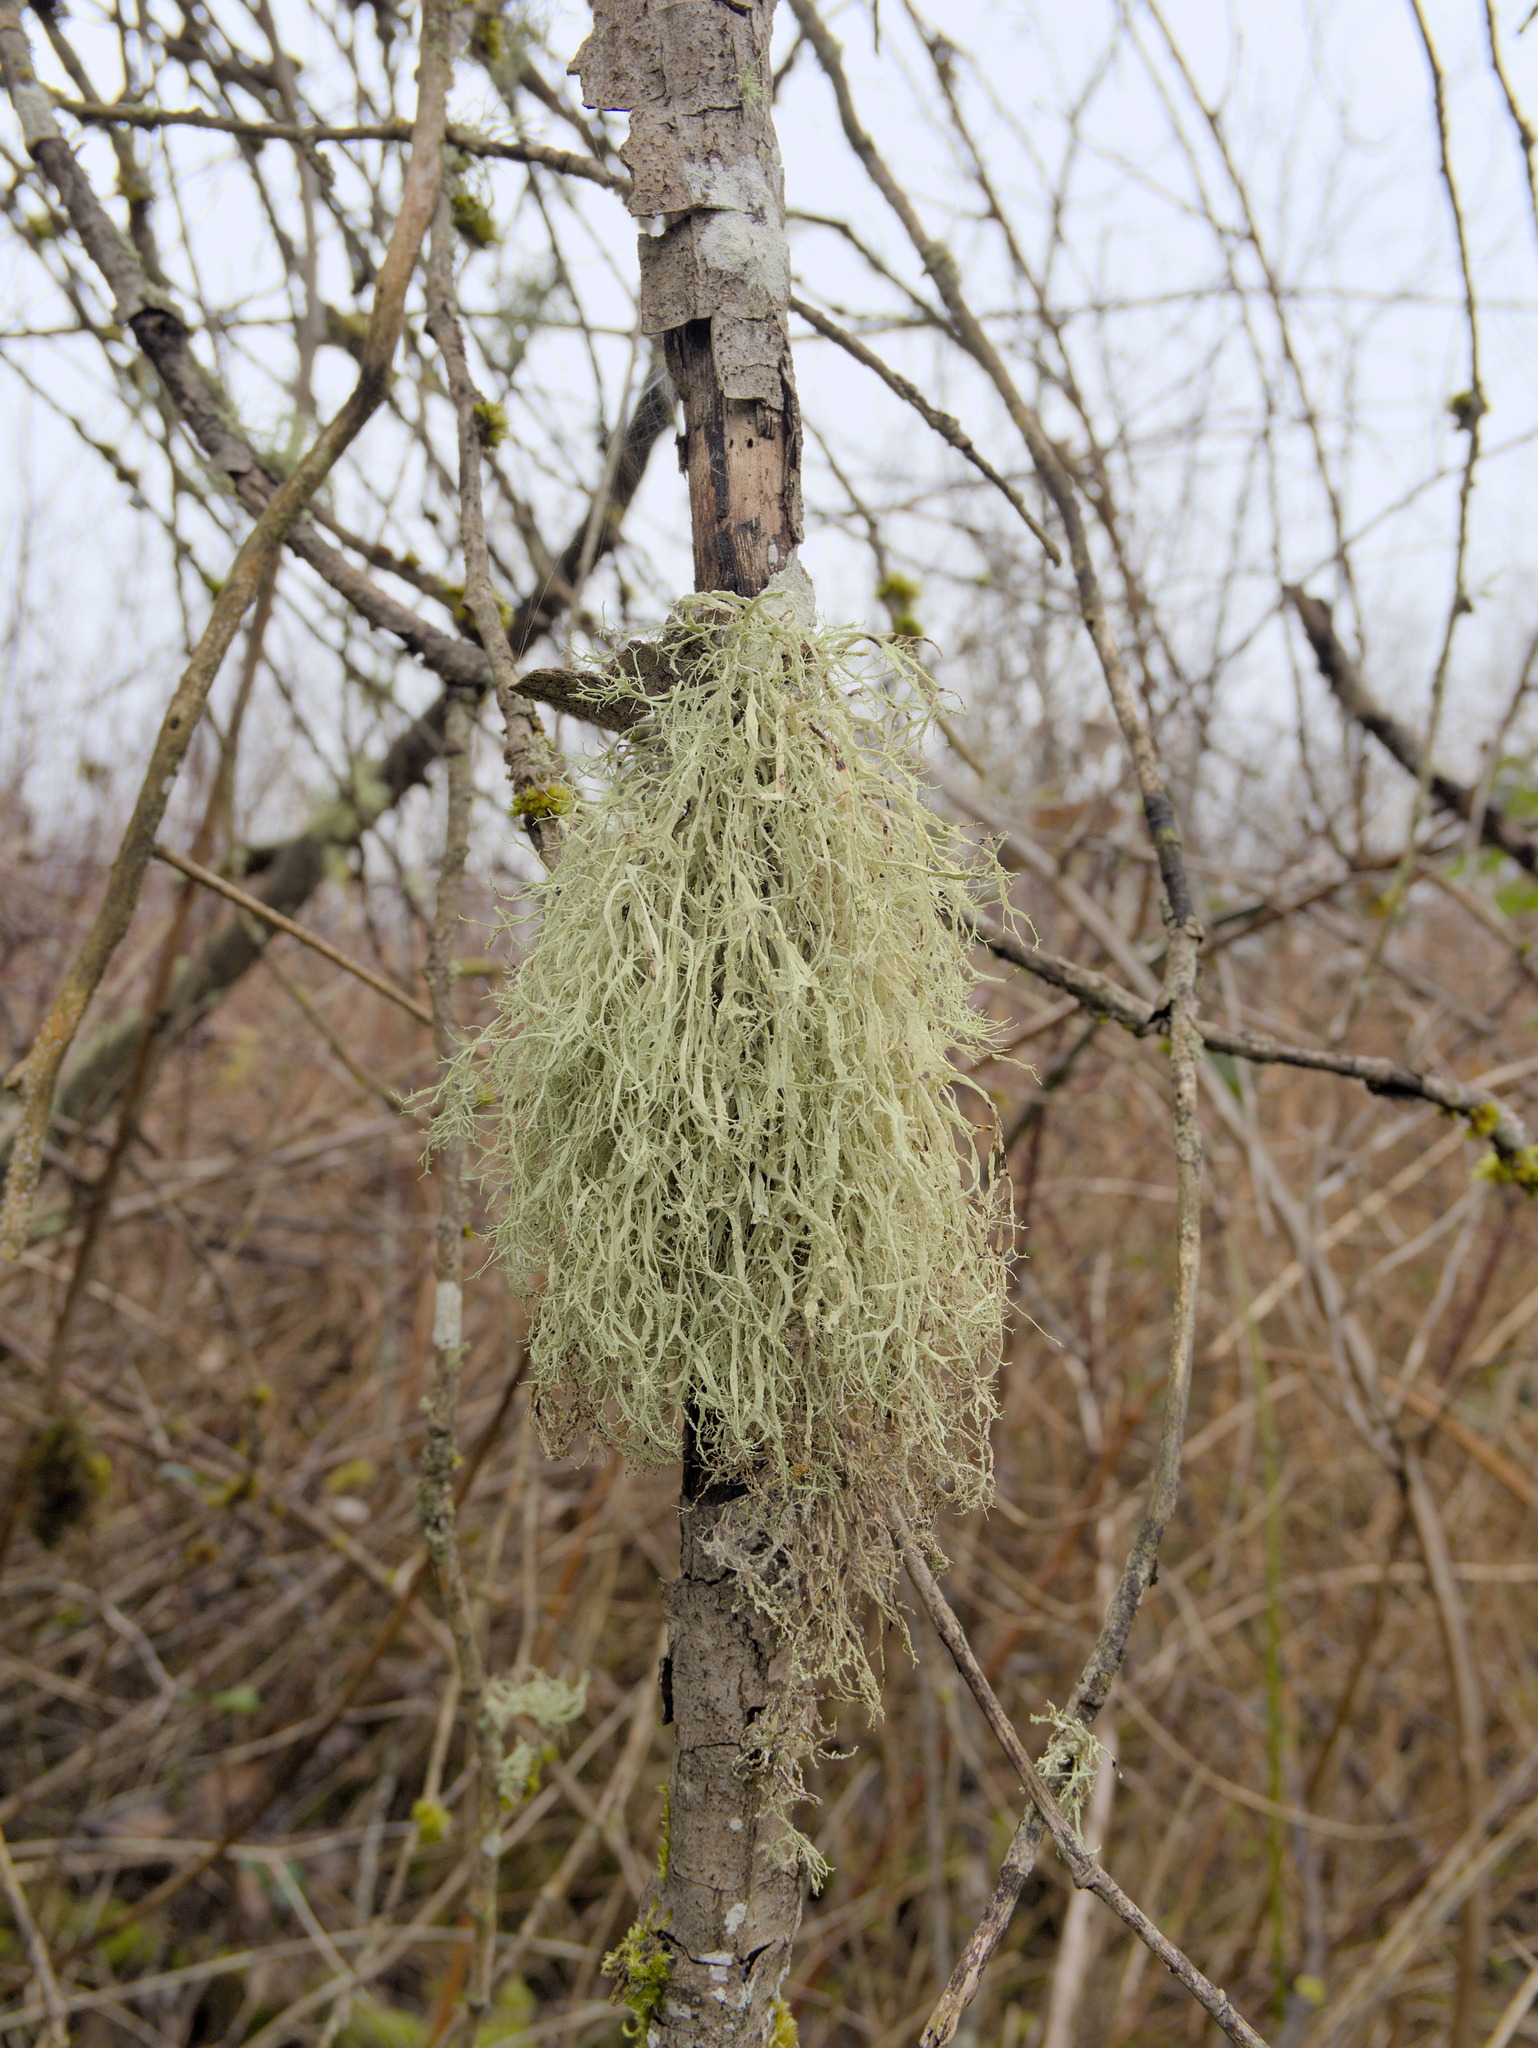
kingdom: Fungi
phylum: Ascomycota
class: Lecanoromycetes
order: Lecanorales
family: Ramalinaceae
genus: Ramalina
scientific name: Ramalina farinacea
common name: Farinose cartilage lichen
